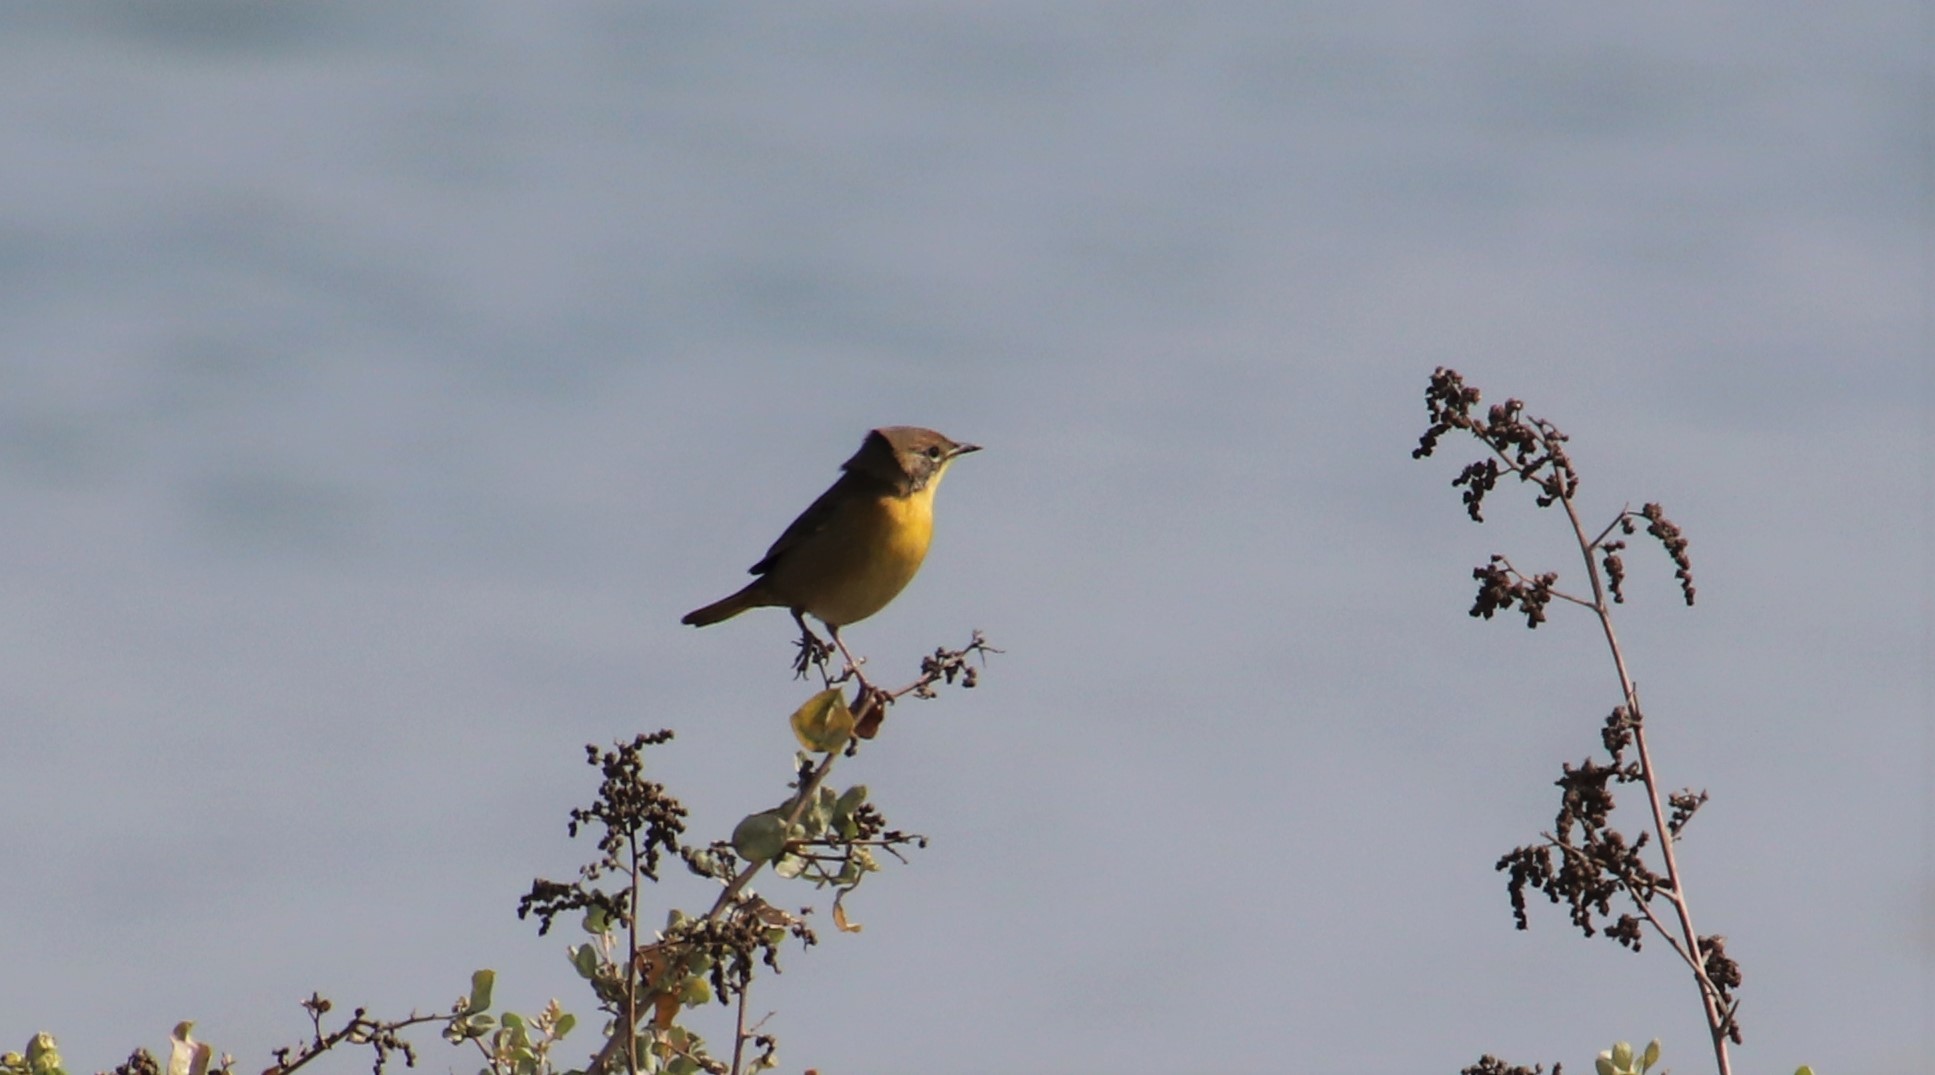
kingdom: Animalia
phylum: Chordata
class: Aves
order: Passeriformes
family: Parulidae
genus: Geothlypis
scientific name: Geothlypis trichas
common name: Common yellowthroat
